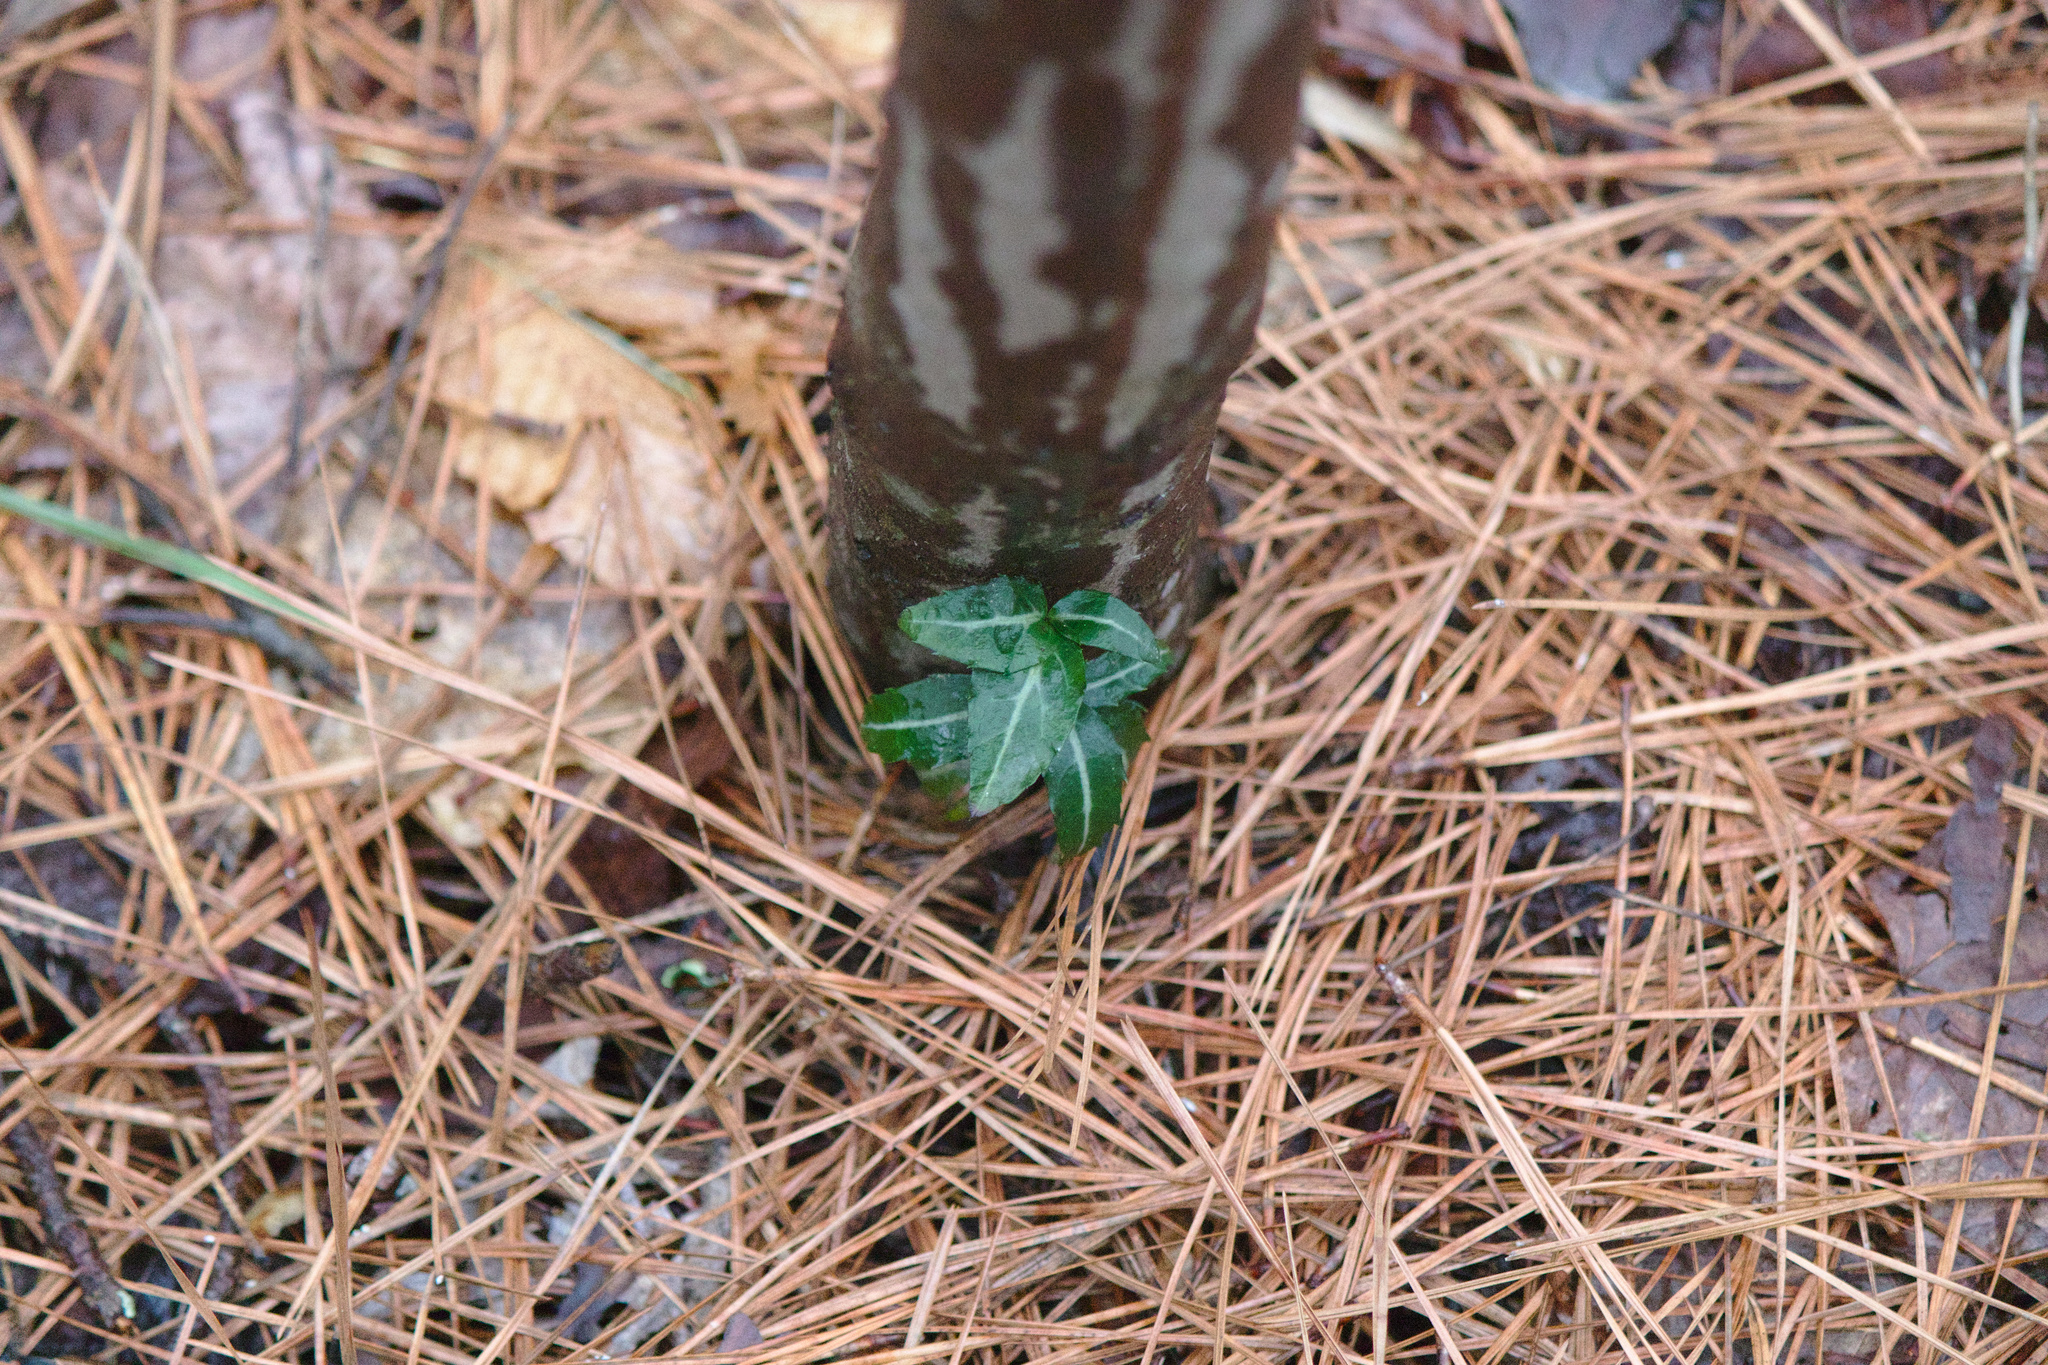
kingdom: Plantae
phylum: Tracheophyta
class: Magnoliopsida
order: Ericales
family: Ericaceae
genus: Chimaphila
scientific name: Chimaphila maculata
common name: Spotted pipsissewa
